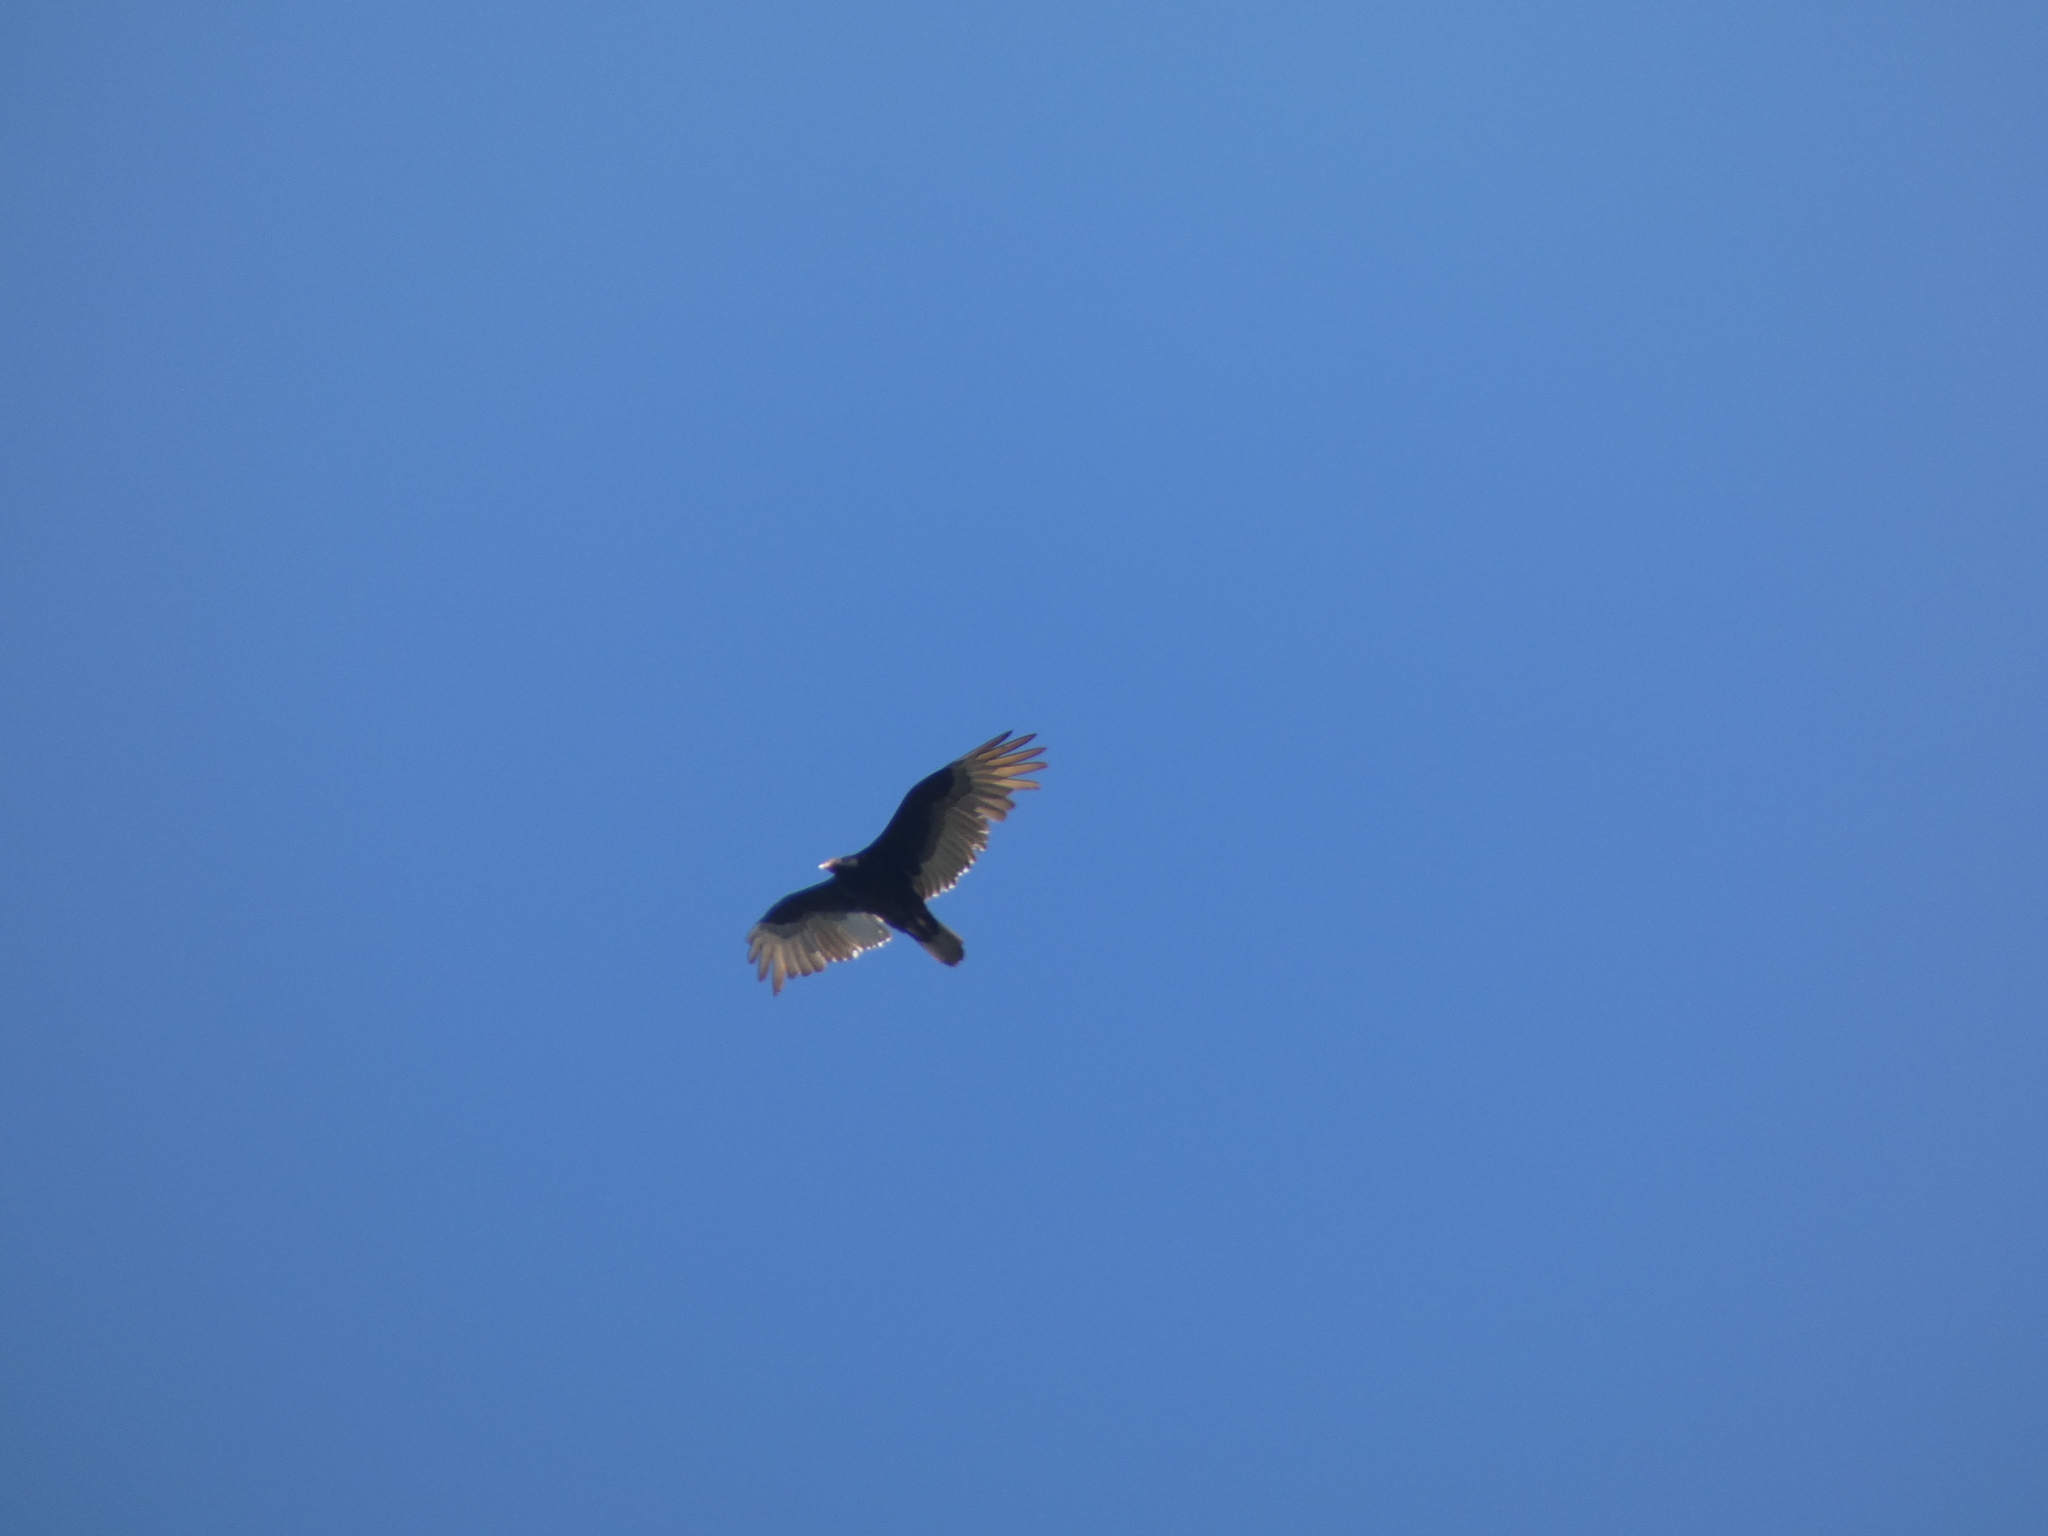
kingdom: Animalia
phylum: Chordata
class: Aves
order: Accipitriformes
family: Cathartidae
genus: Cathartes
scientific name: Cathartes aura
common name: Turkey vulture
